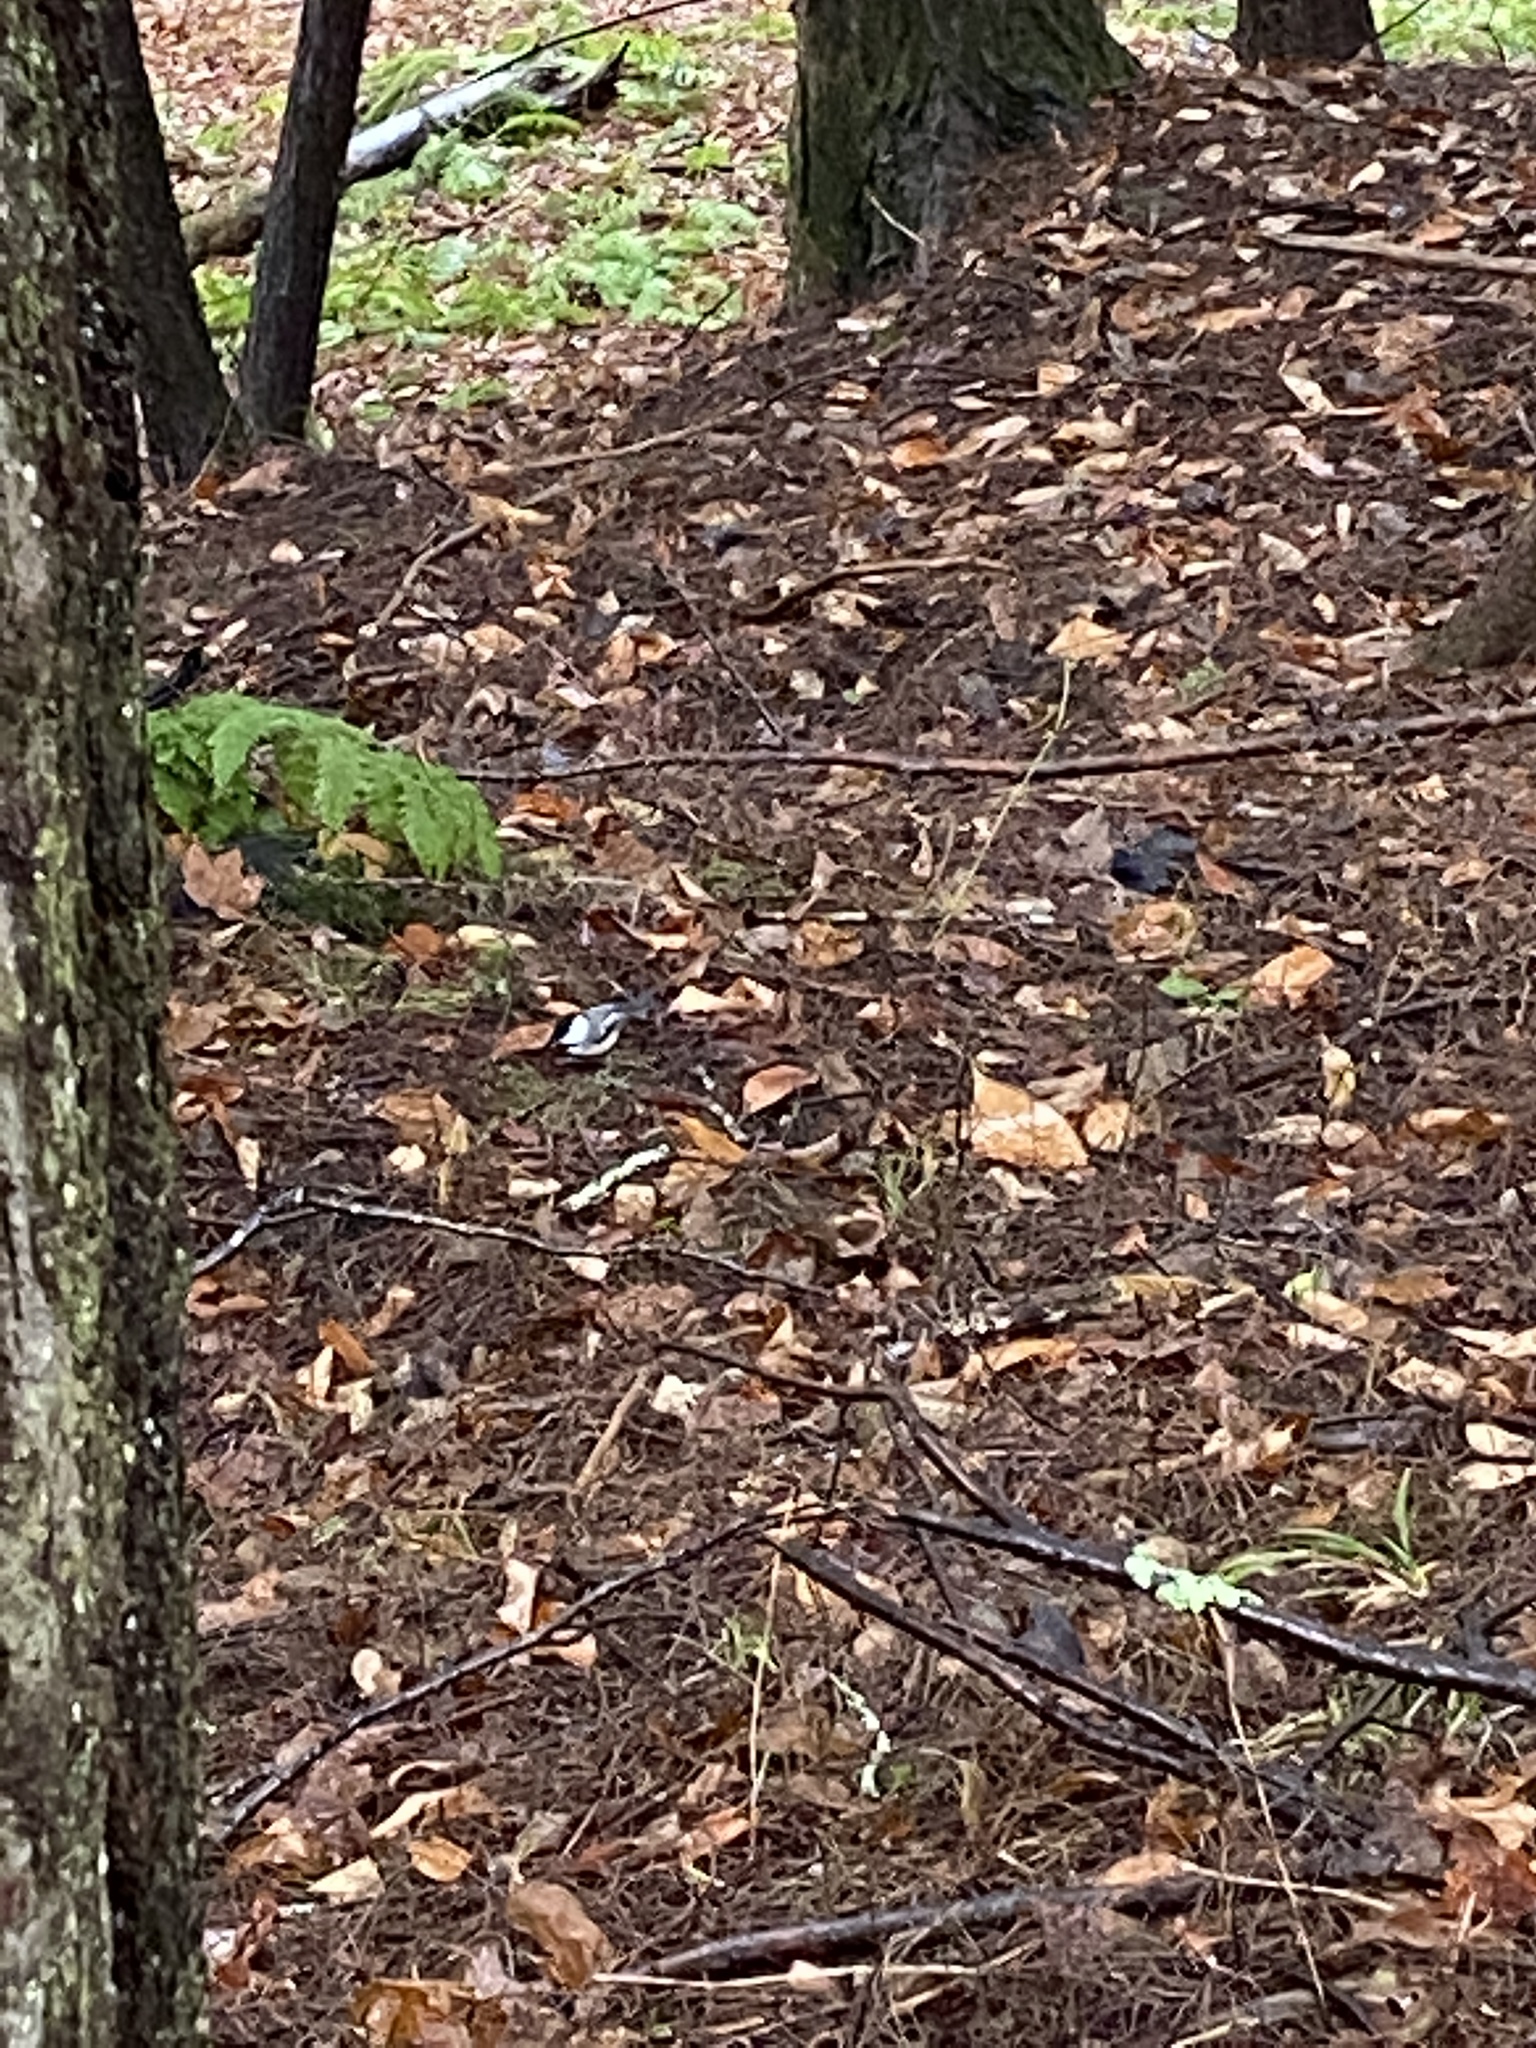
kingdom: Animalia
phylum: Chordata
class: Aves
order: Passeriformes
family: Paridae
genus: Poecile
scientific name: Poecile atricapillus
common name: Black-capped chickadee
